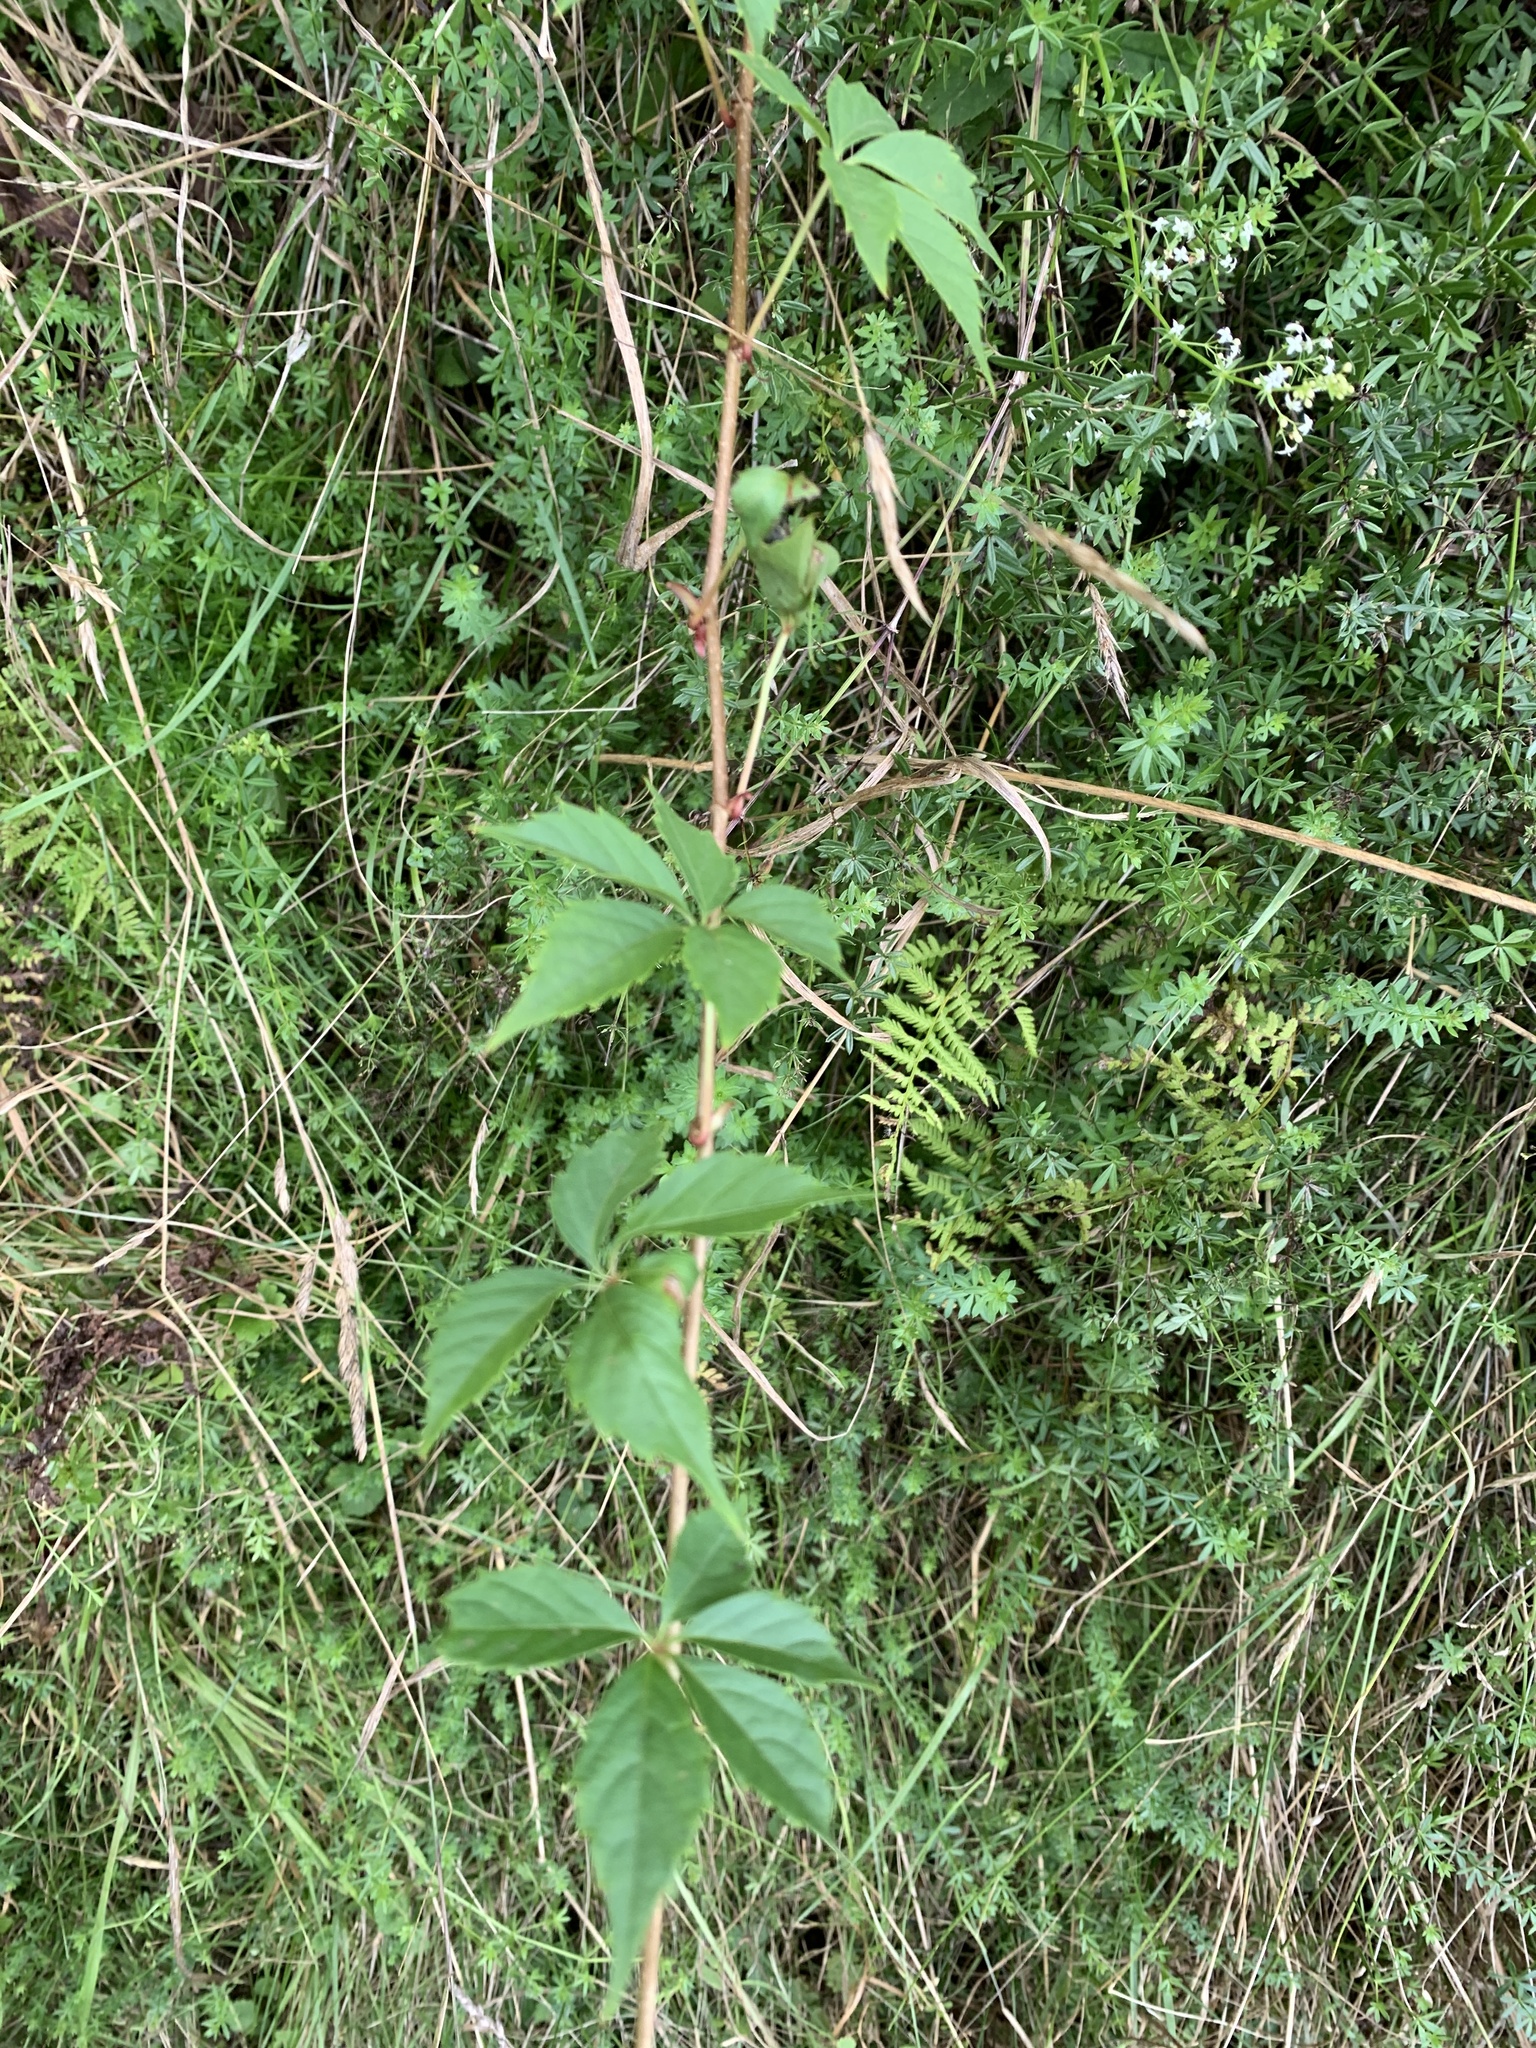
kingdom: Plantae
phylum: Tracheophyta
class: Magnoliopsida
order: Vitales
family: Vitaceae
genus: Parthenocissus
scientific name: Parthenocissus quinquefolia
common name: Virginia-creeper
